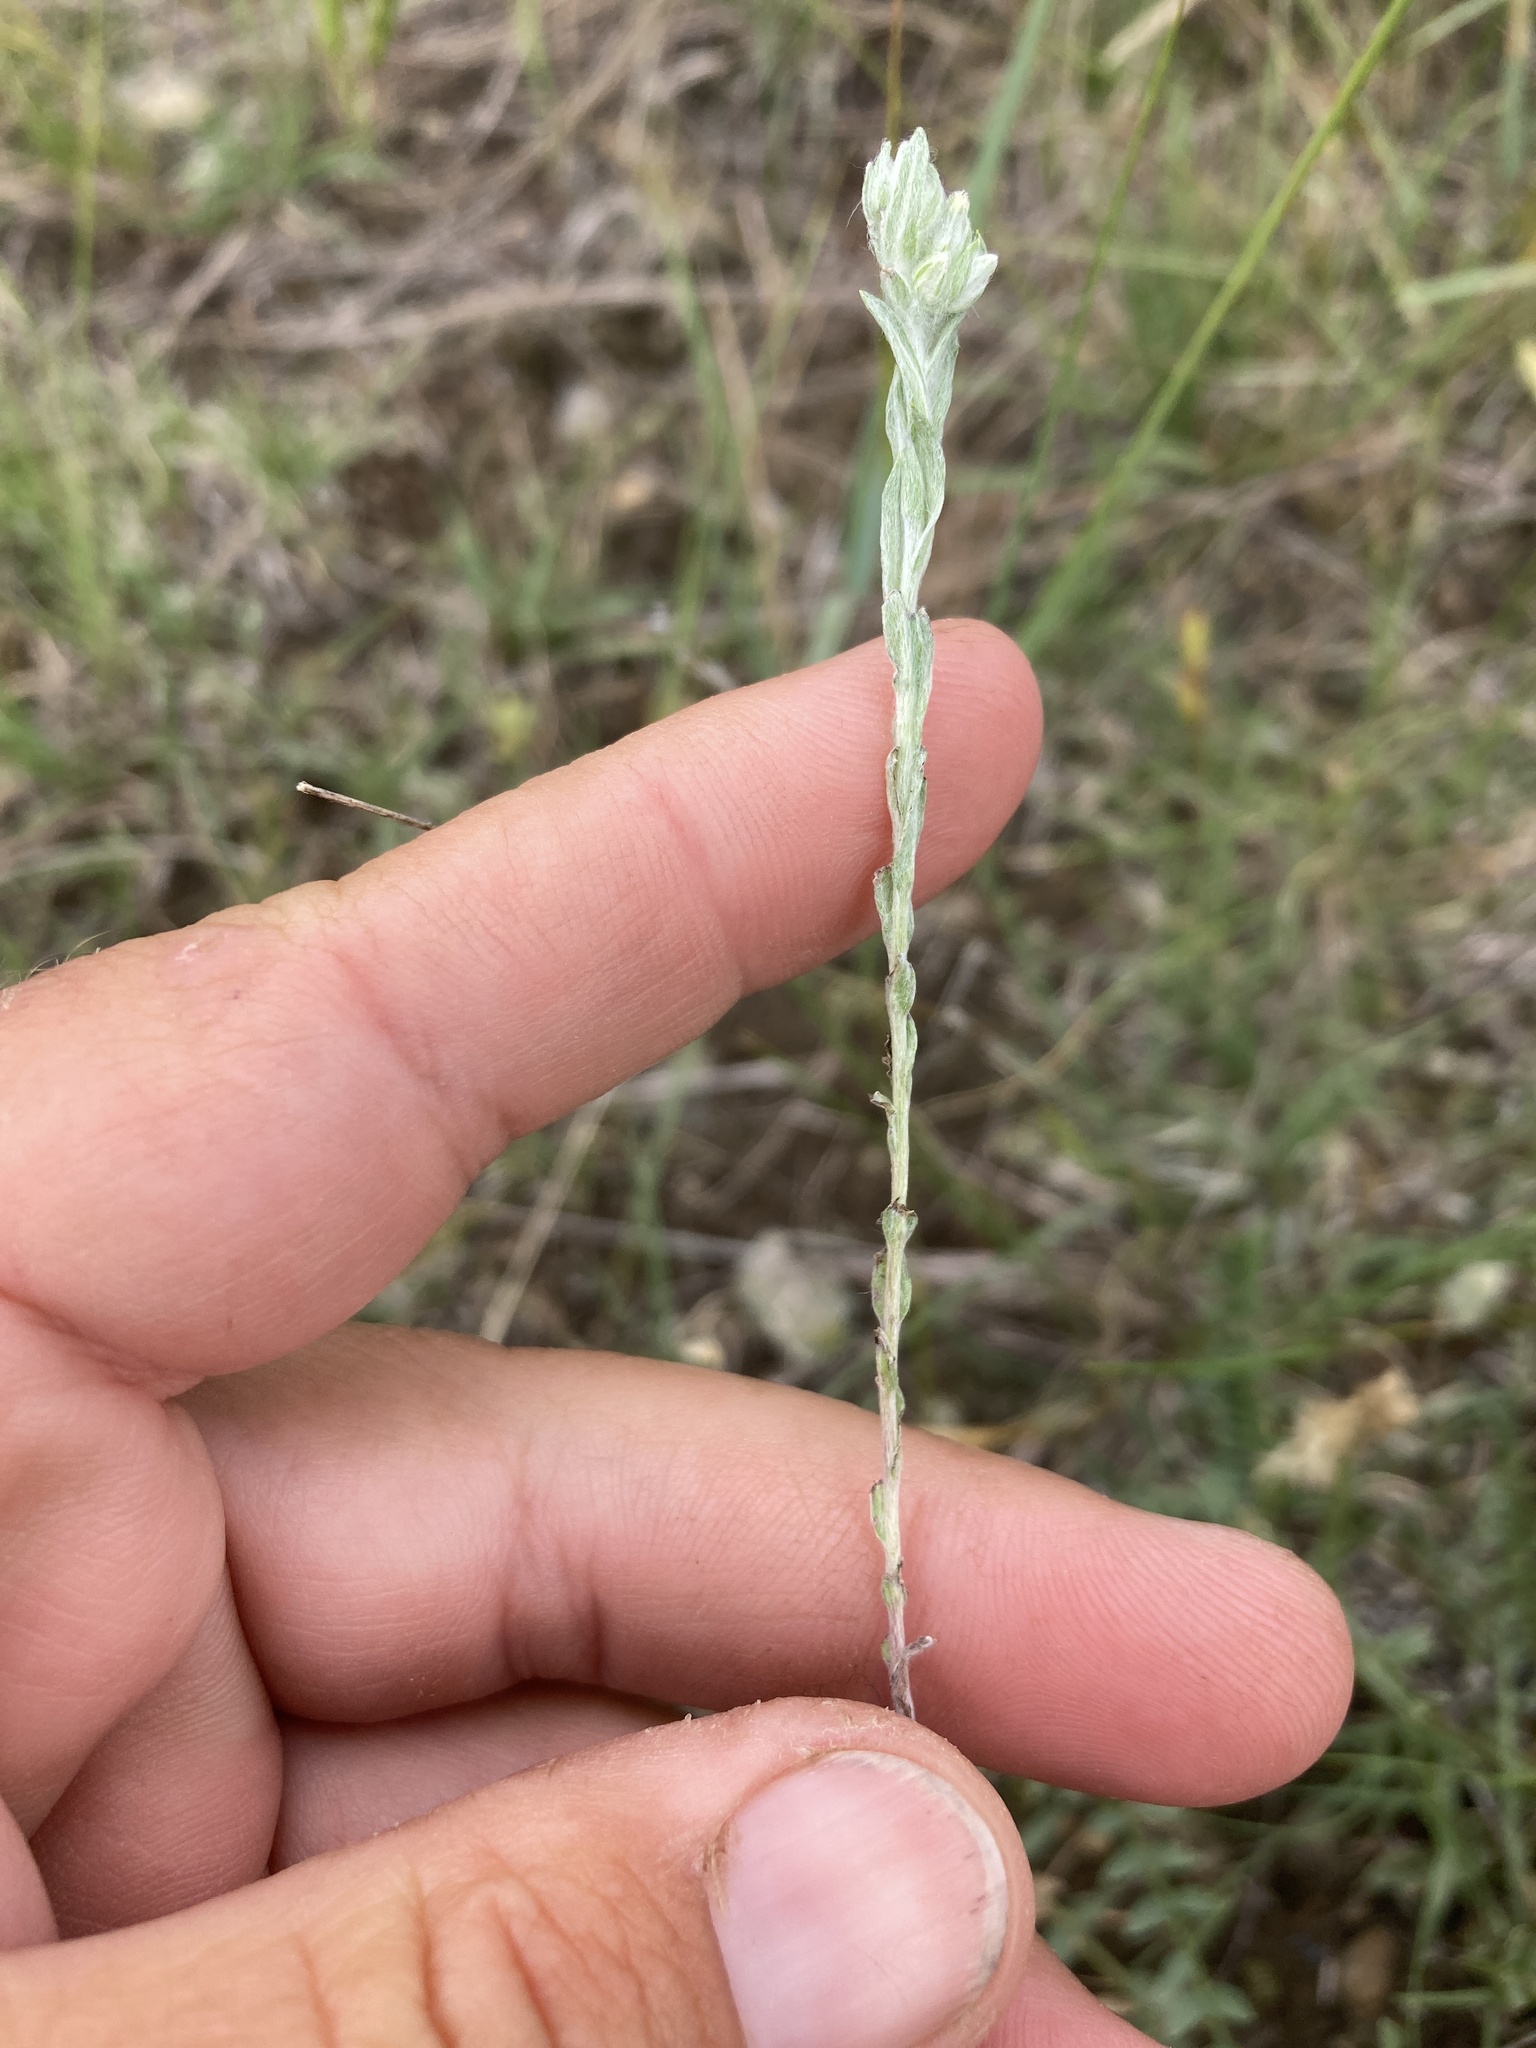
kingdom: Plantae
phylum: Tracheophyta
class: Magnoliopsida
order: Asterales
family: Asteraceae
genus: Filago
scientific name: Filago arvensis
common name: Field cudweed
